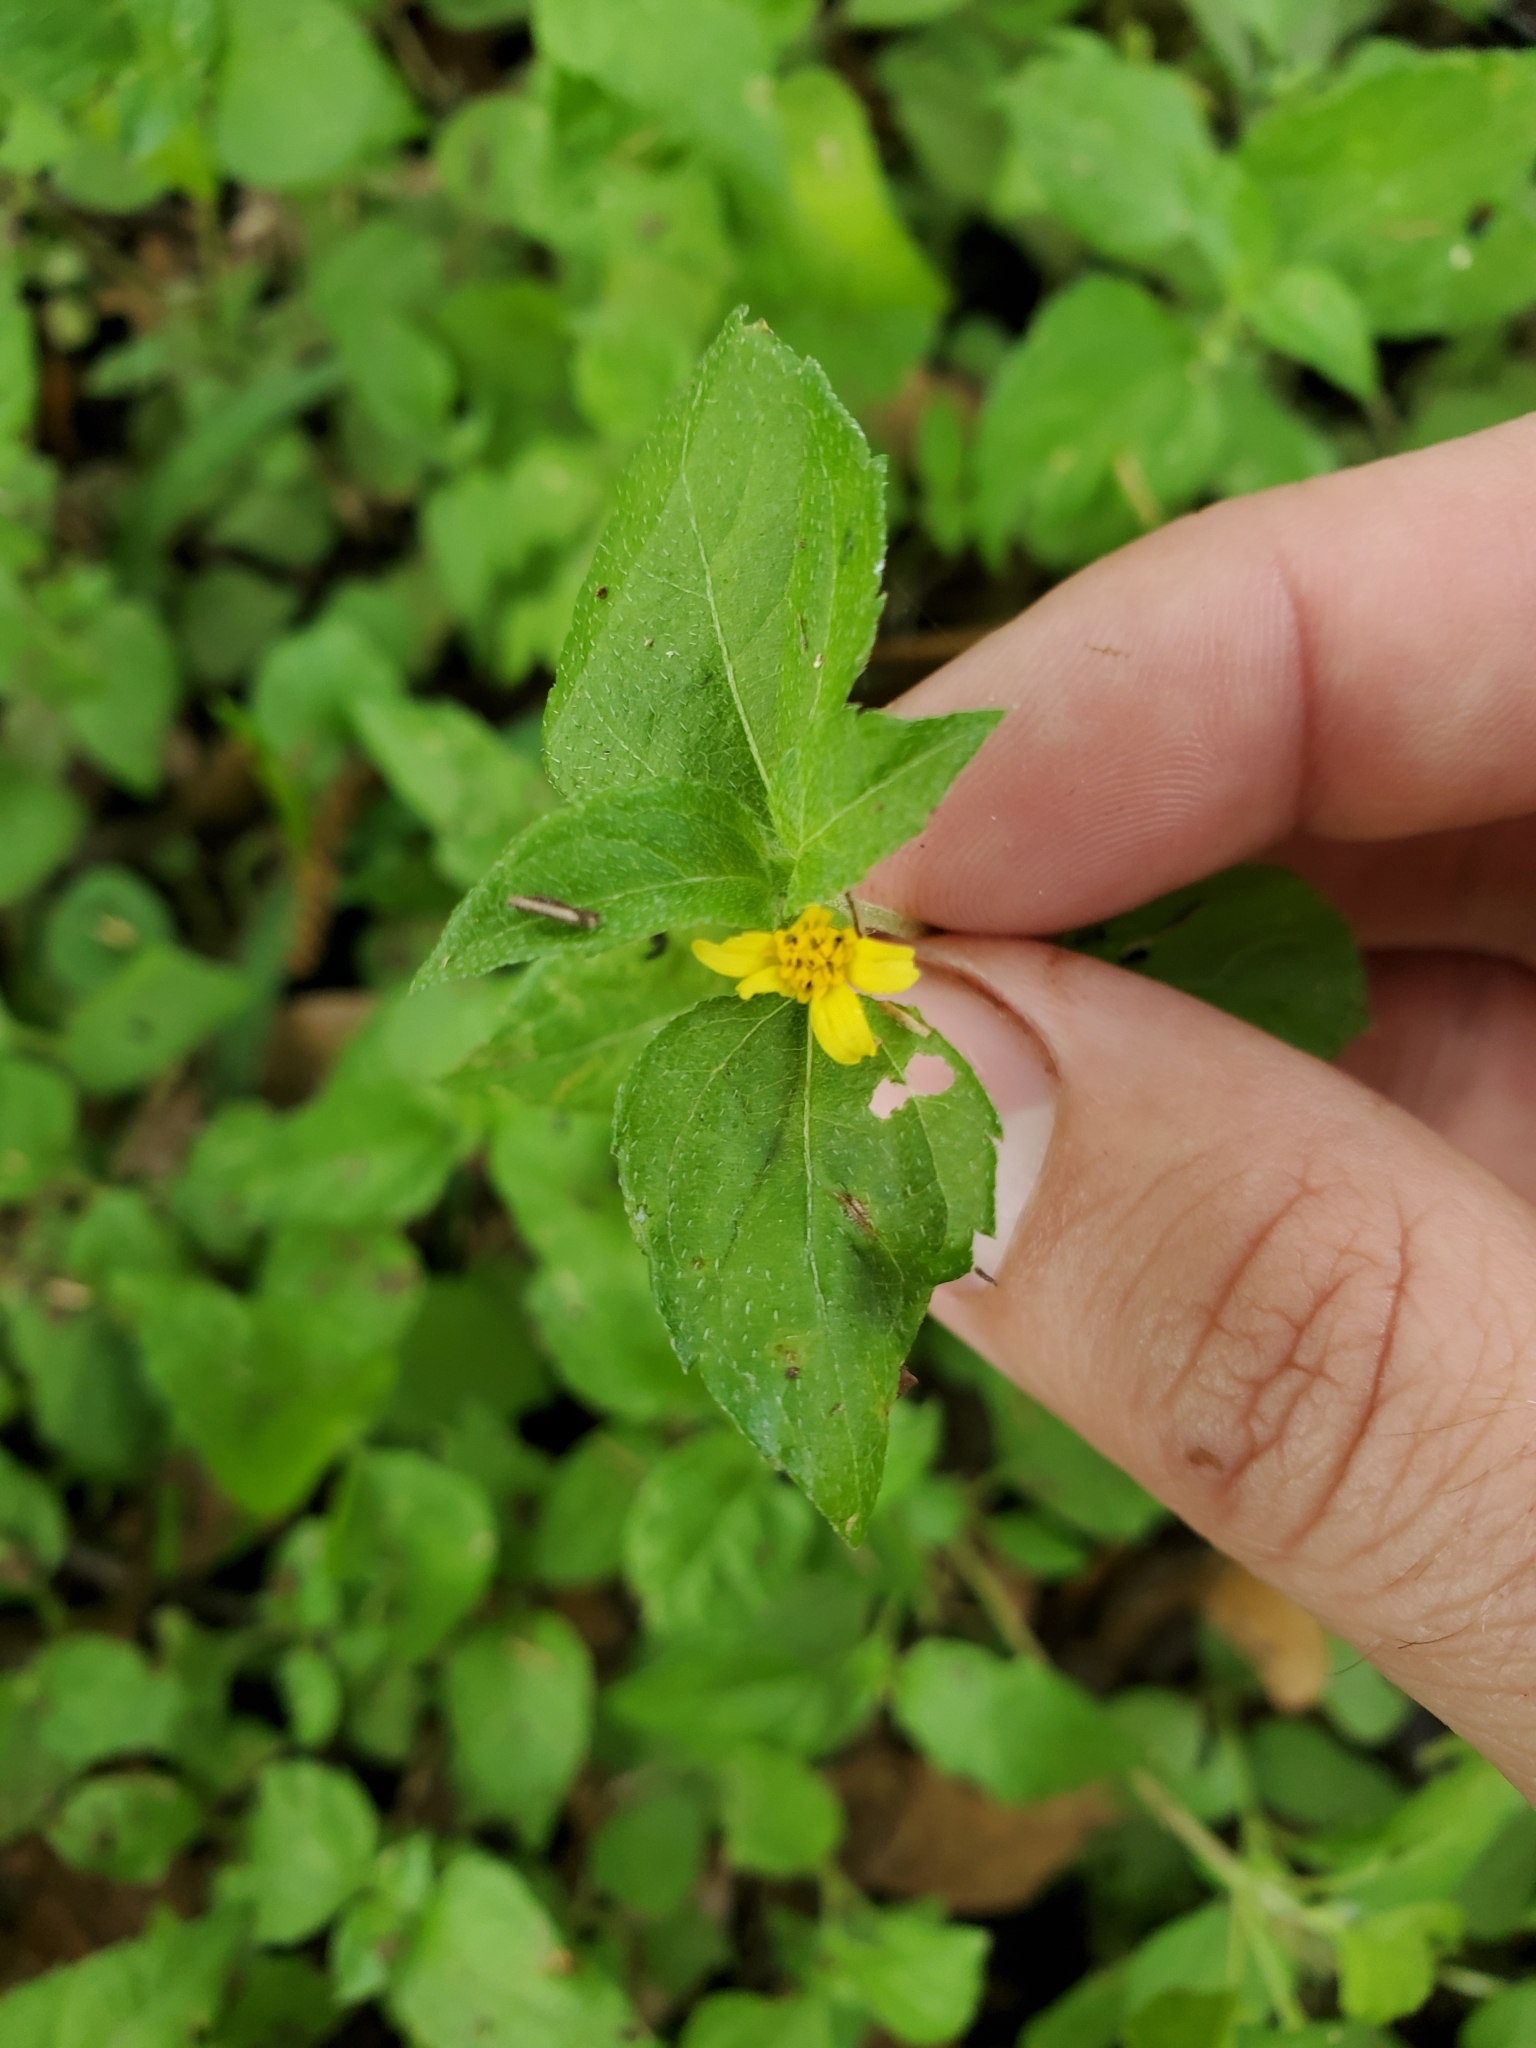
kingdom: Plantae
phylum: Tracheophyta
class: Magnoliopsida
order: Asterales
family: Asteraceae
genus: Calyptocarpus
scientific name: Calyptocarpus vialis
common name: Straggler daisy
